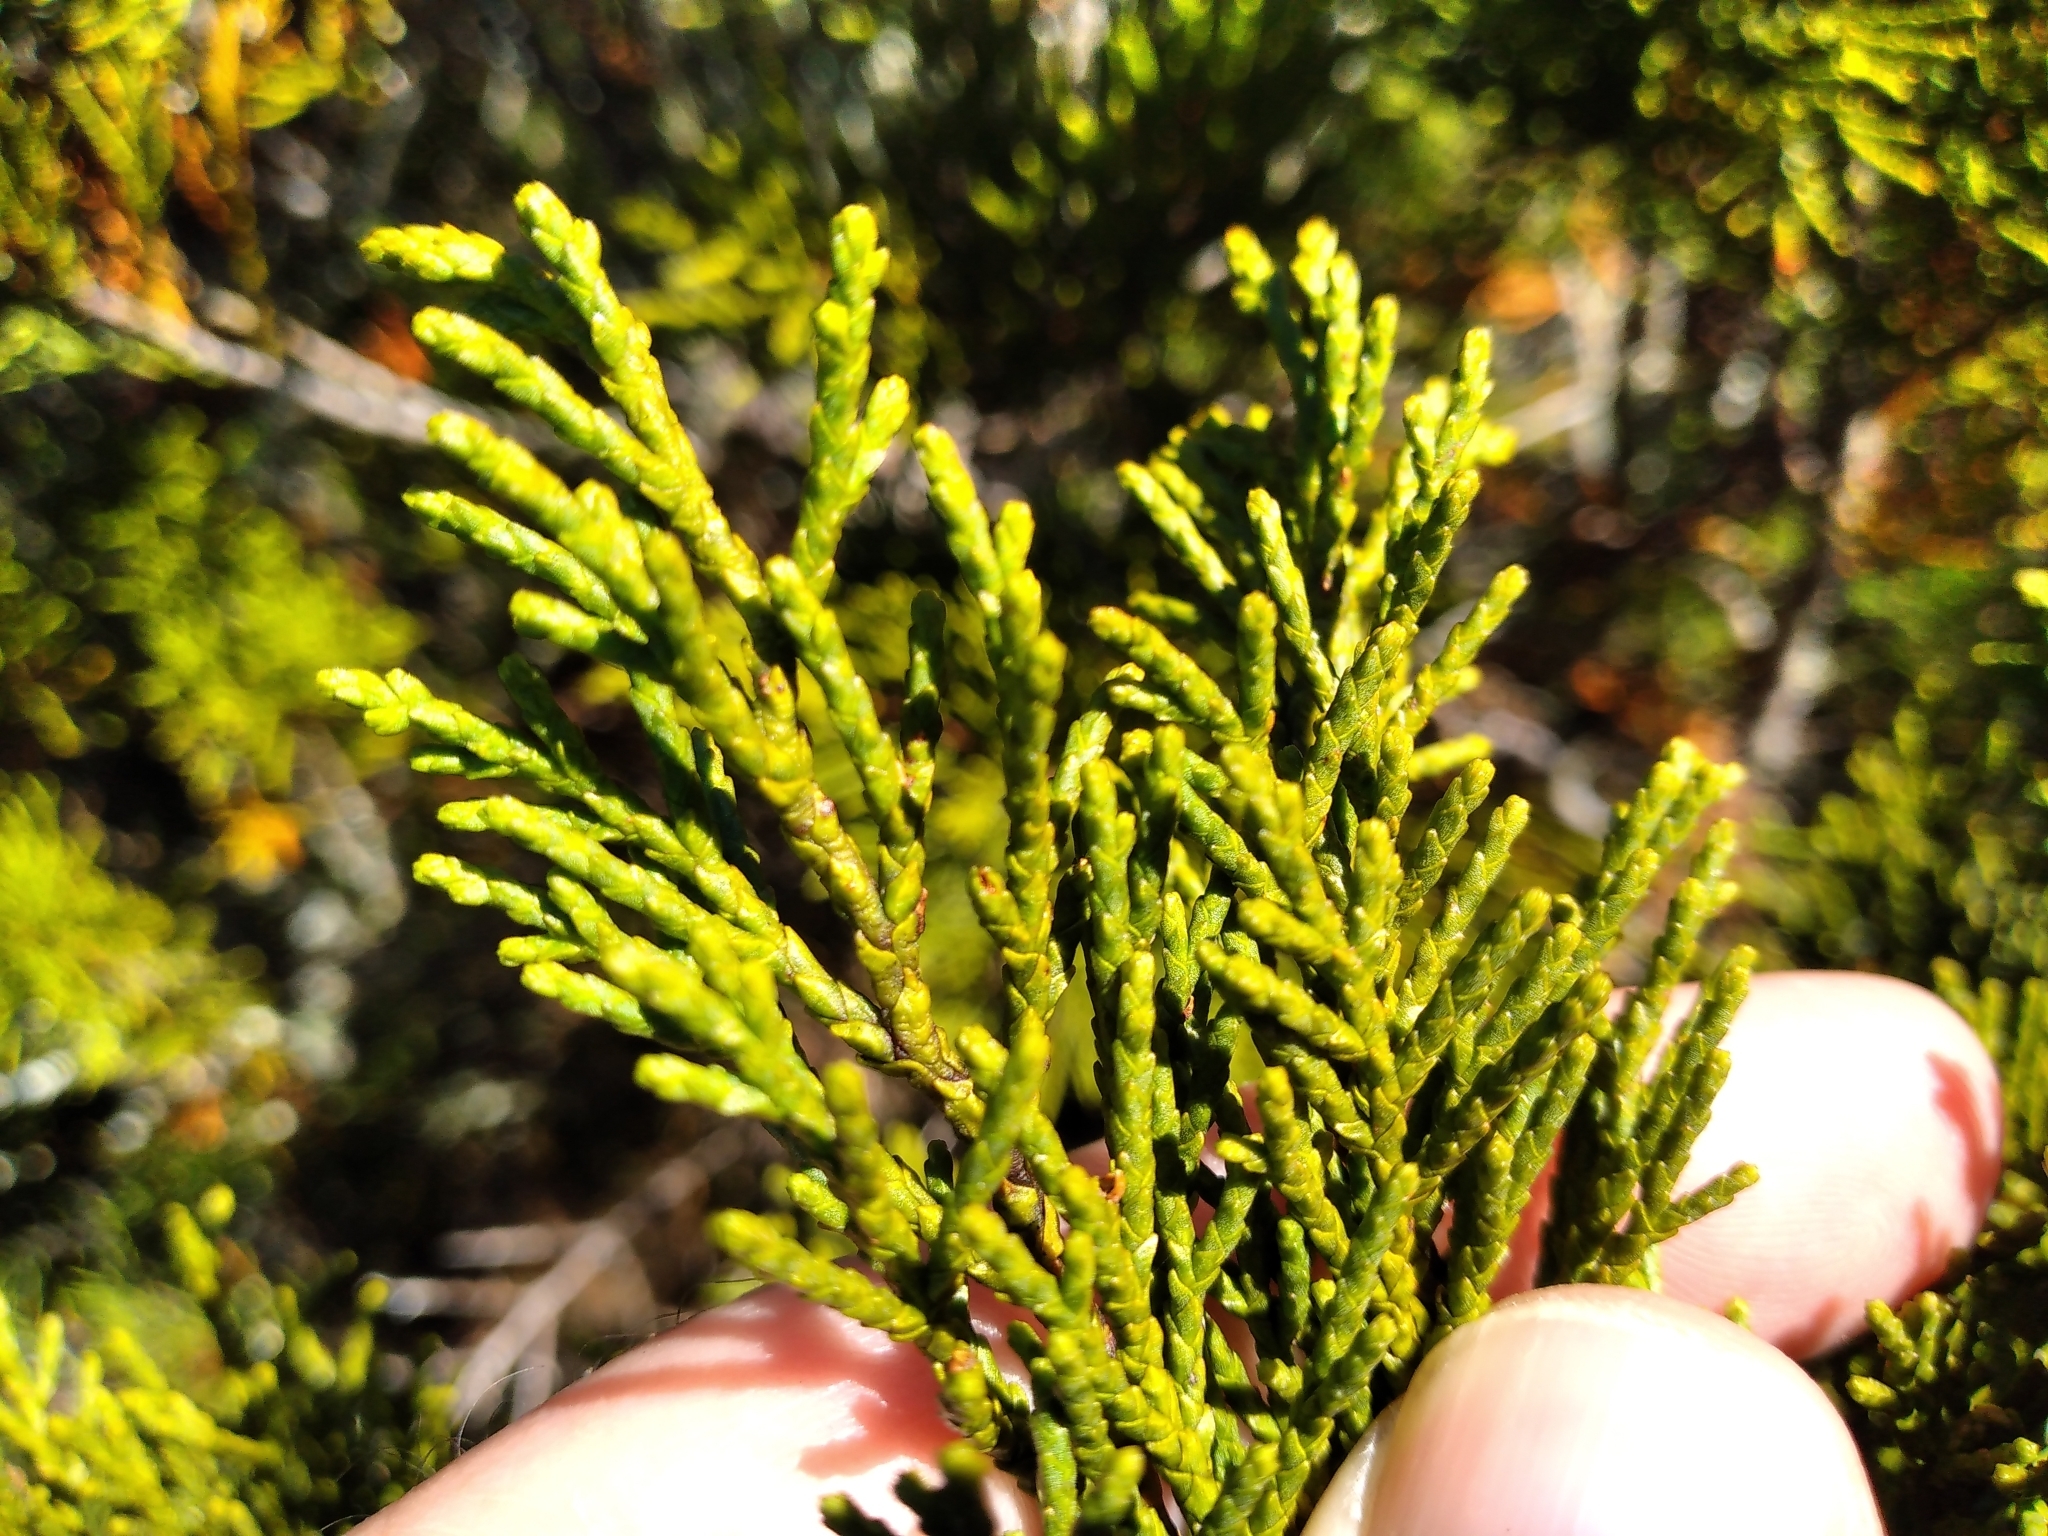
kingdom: Plantae
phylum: Tracheophyta
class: Pinopsida
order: Pinales
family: Podocarpaceae
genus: Halocarpus
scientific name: Halocarpus bidwillii
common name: Bog pine
